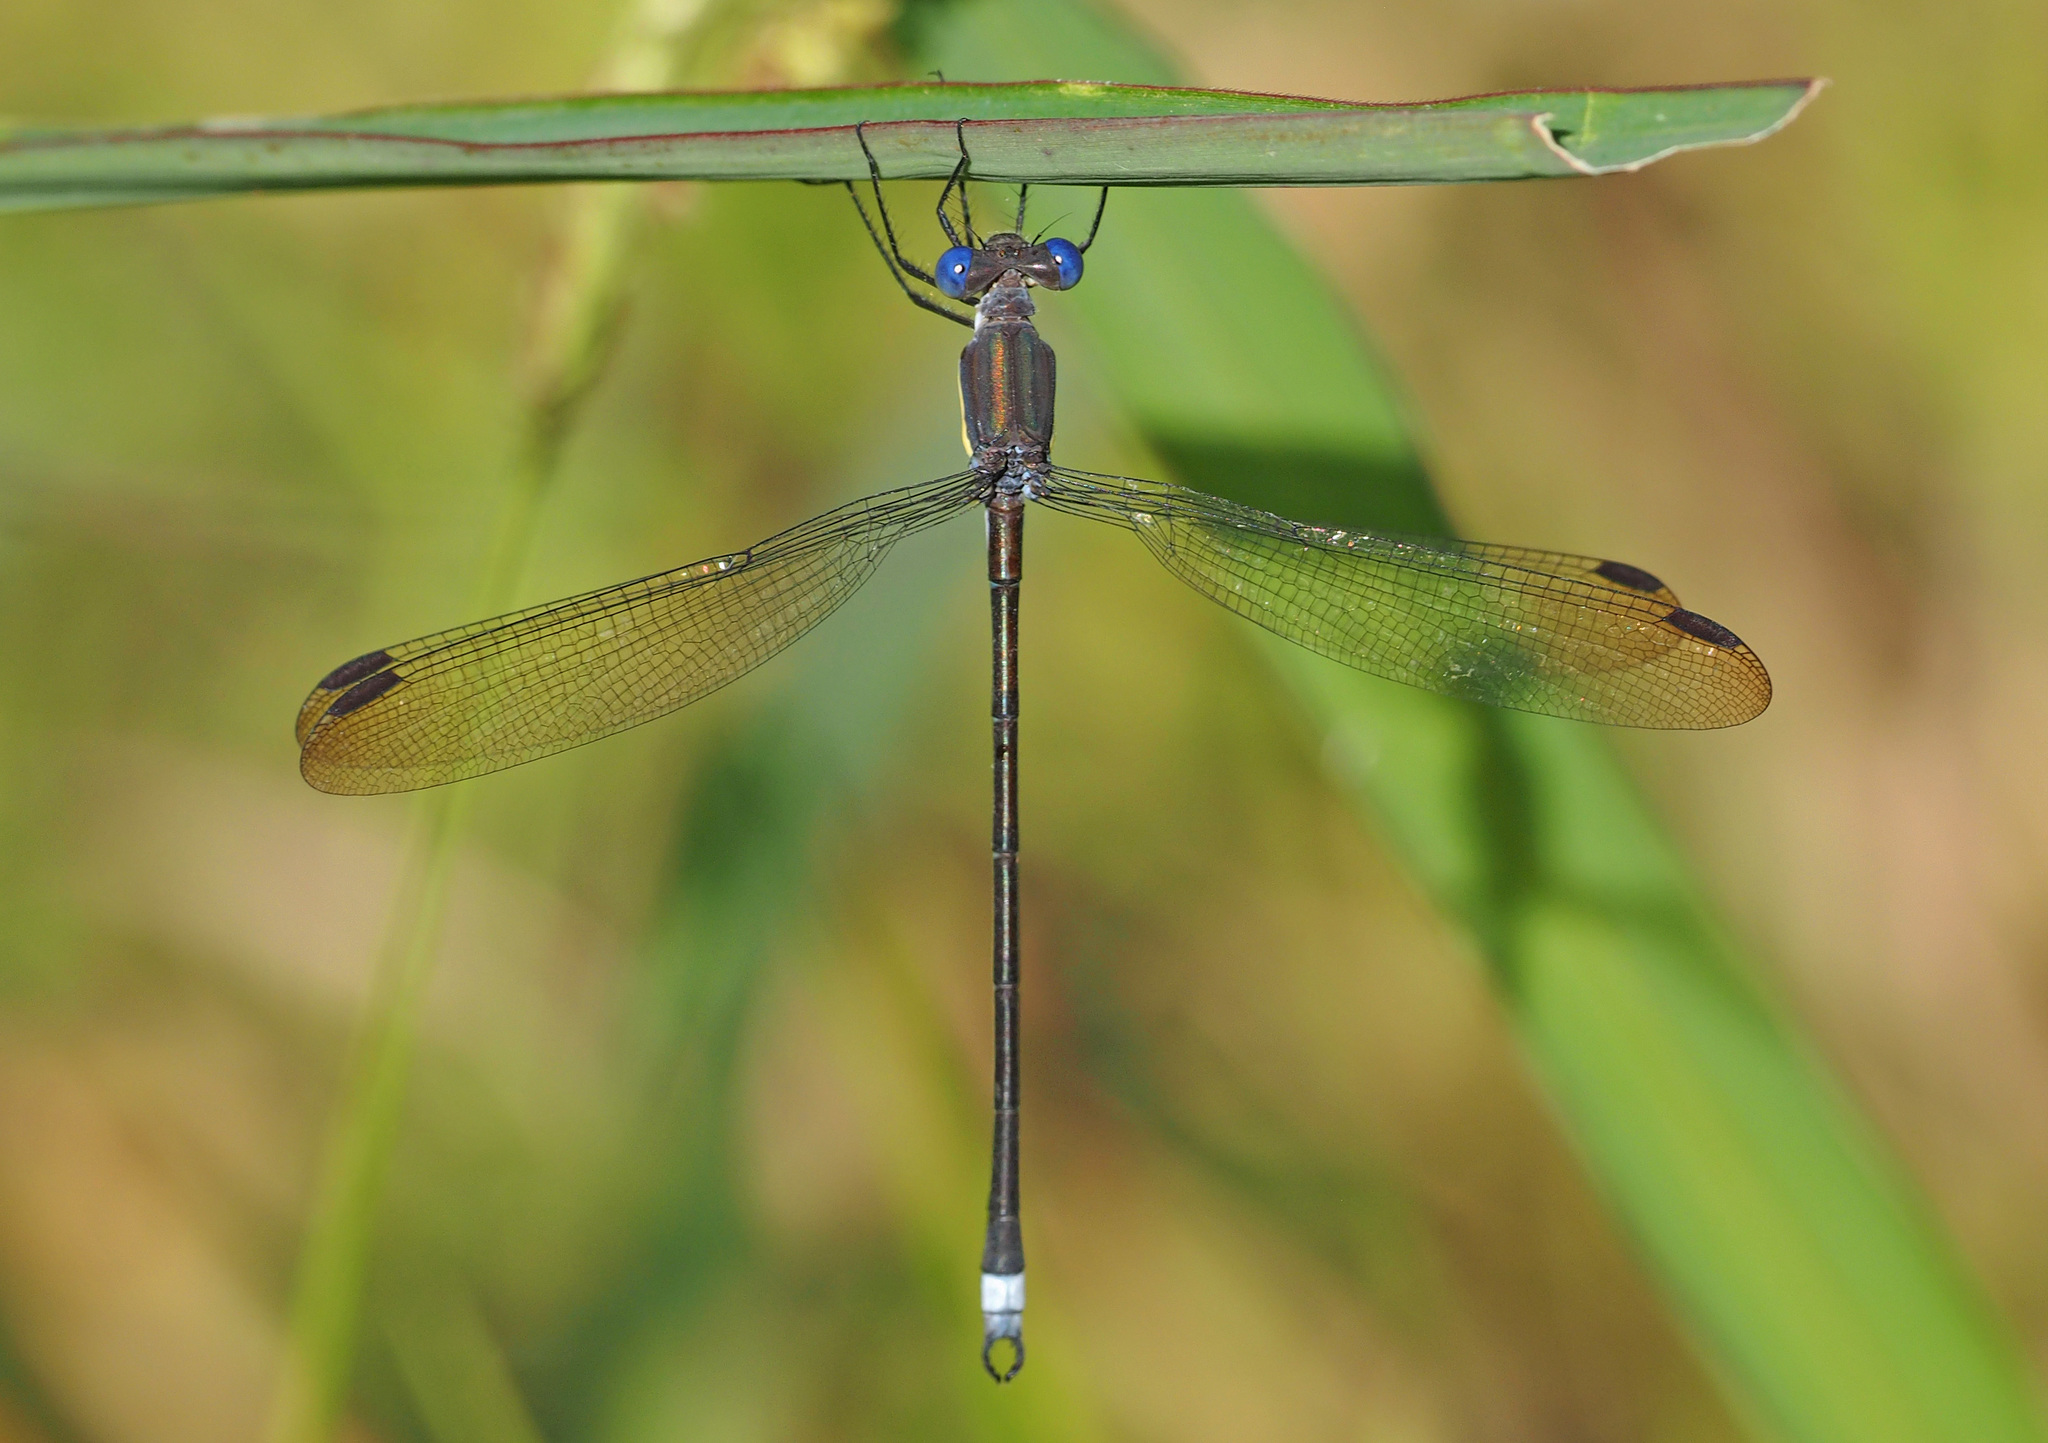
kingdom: Animalia
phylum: Arthropoda
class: Insecta
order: Odonata
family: Lestidae
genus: Archilestes
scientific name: Archilestes grandis
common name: Great spreadwing
